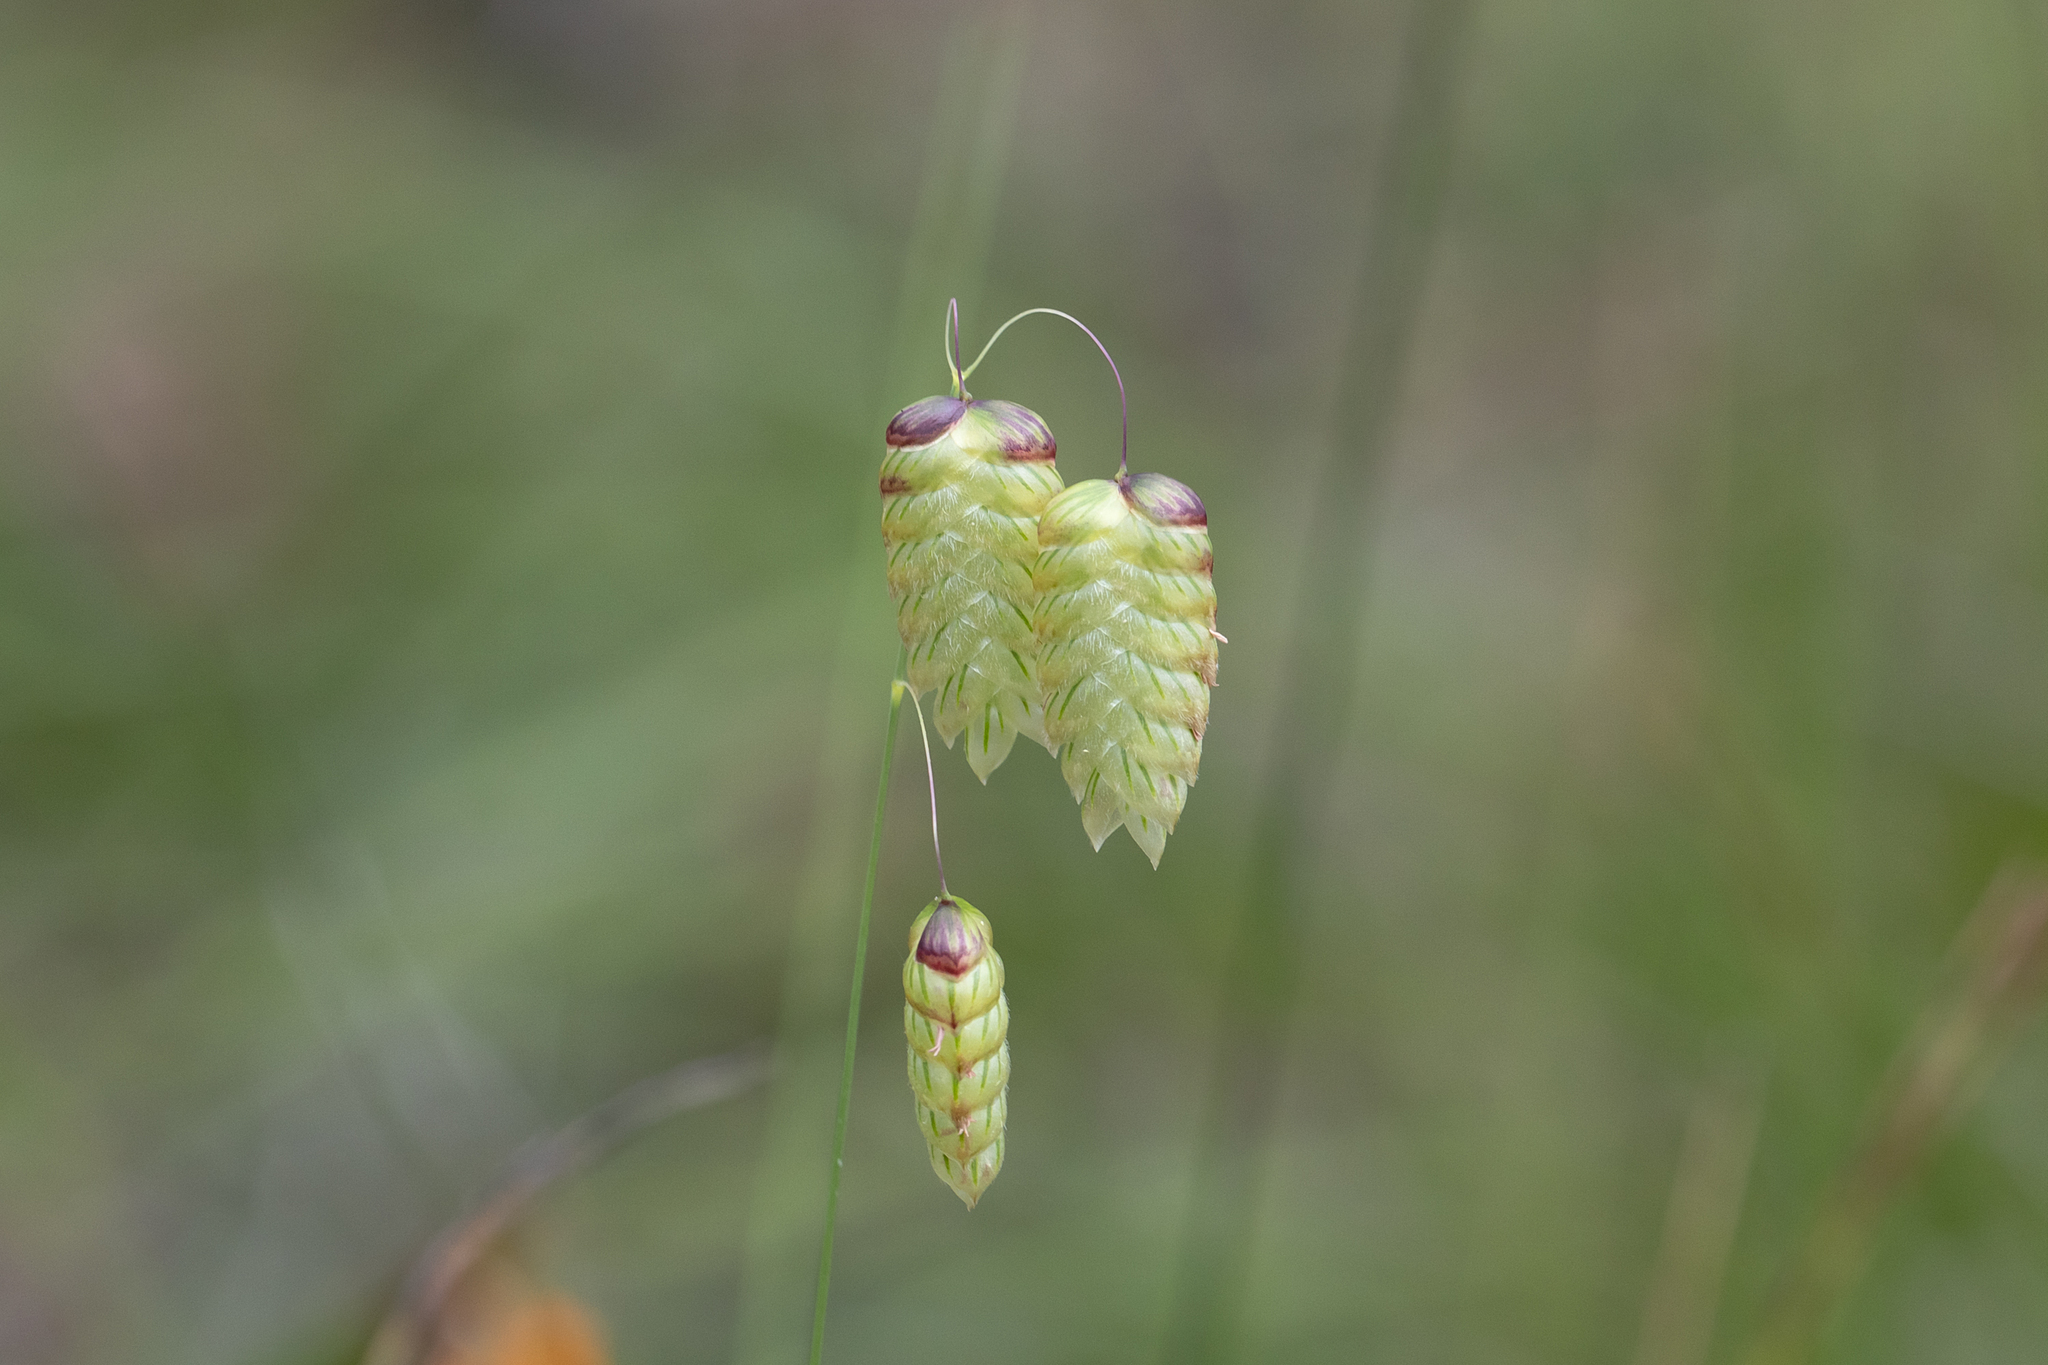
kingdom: Plantae
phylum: Tracheophyta
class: Liliopsida
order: Poales
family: Poaceae
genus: Briza
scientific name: Briza maxima
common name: Big quakinggrass
